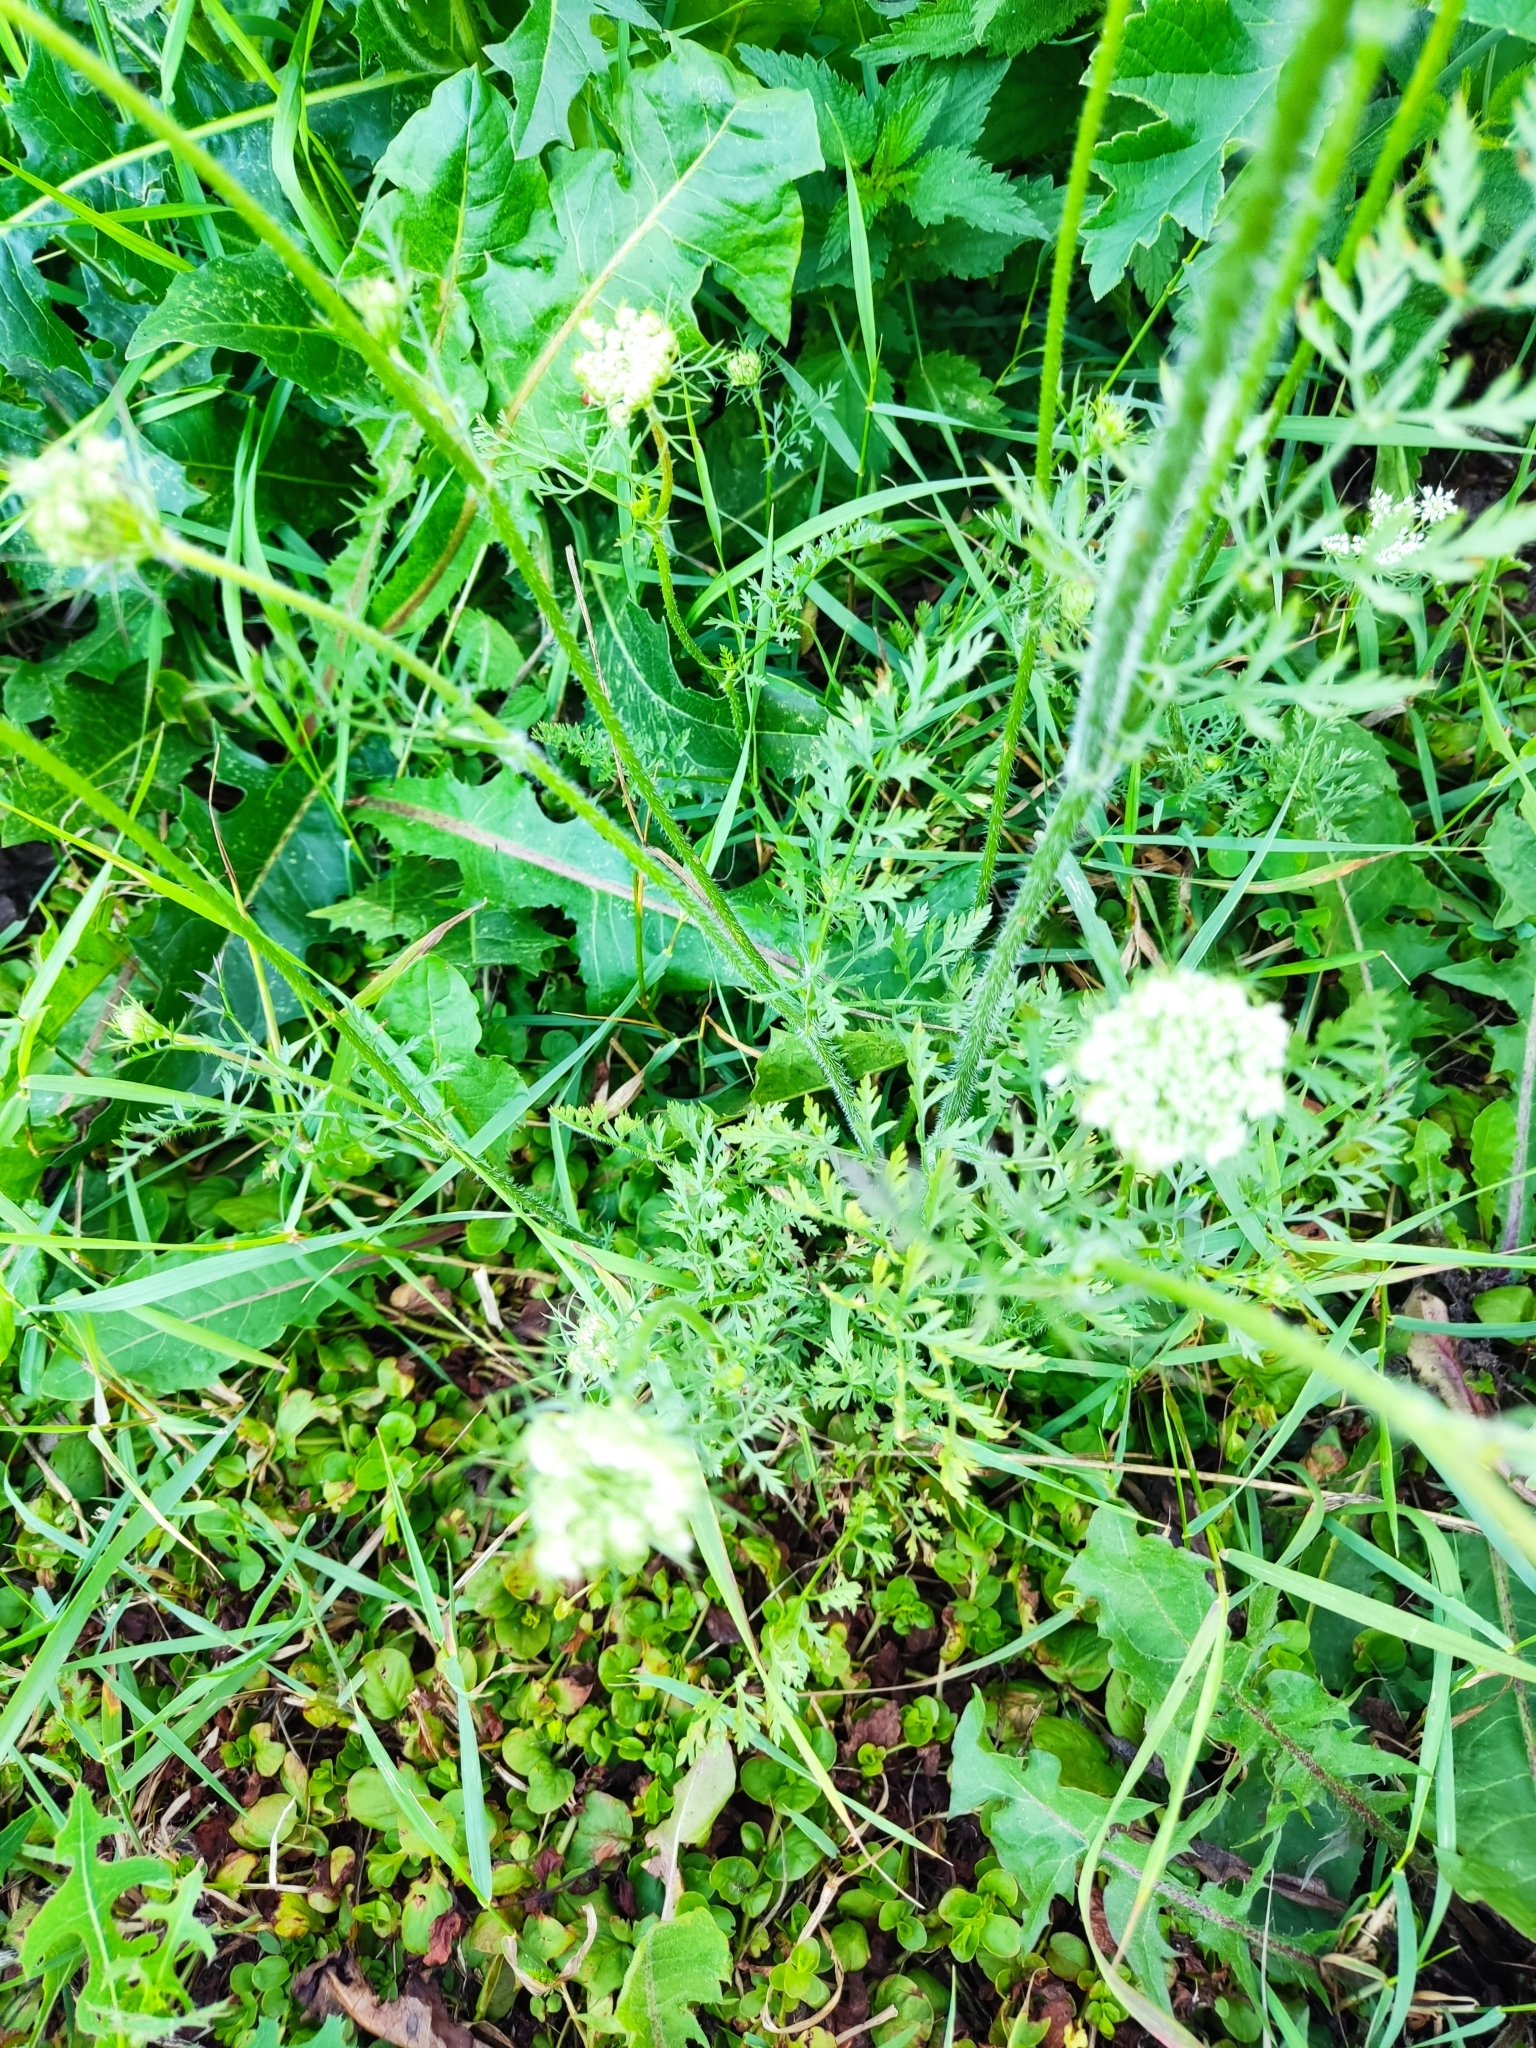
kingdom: Plantae
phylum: Tracheophyta
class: Magnoliopsida
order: Apiales
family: Apiaceae
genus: Daucus
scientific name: Daucus carota
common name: Wild carrot
